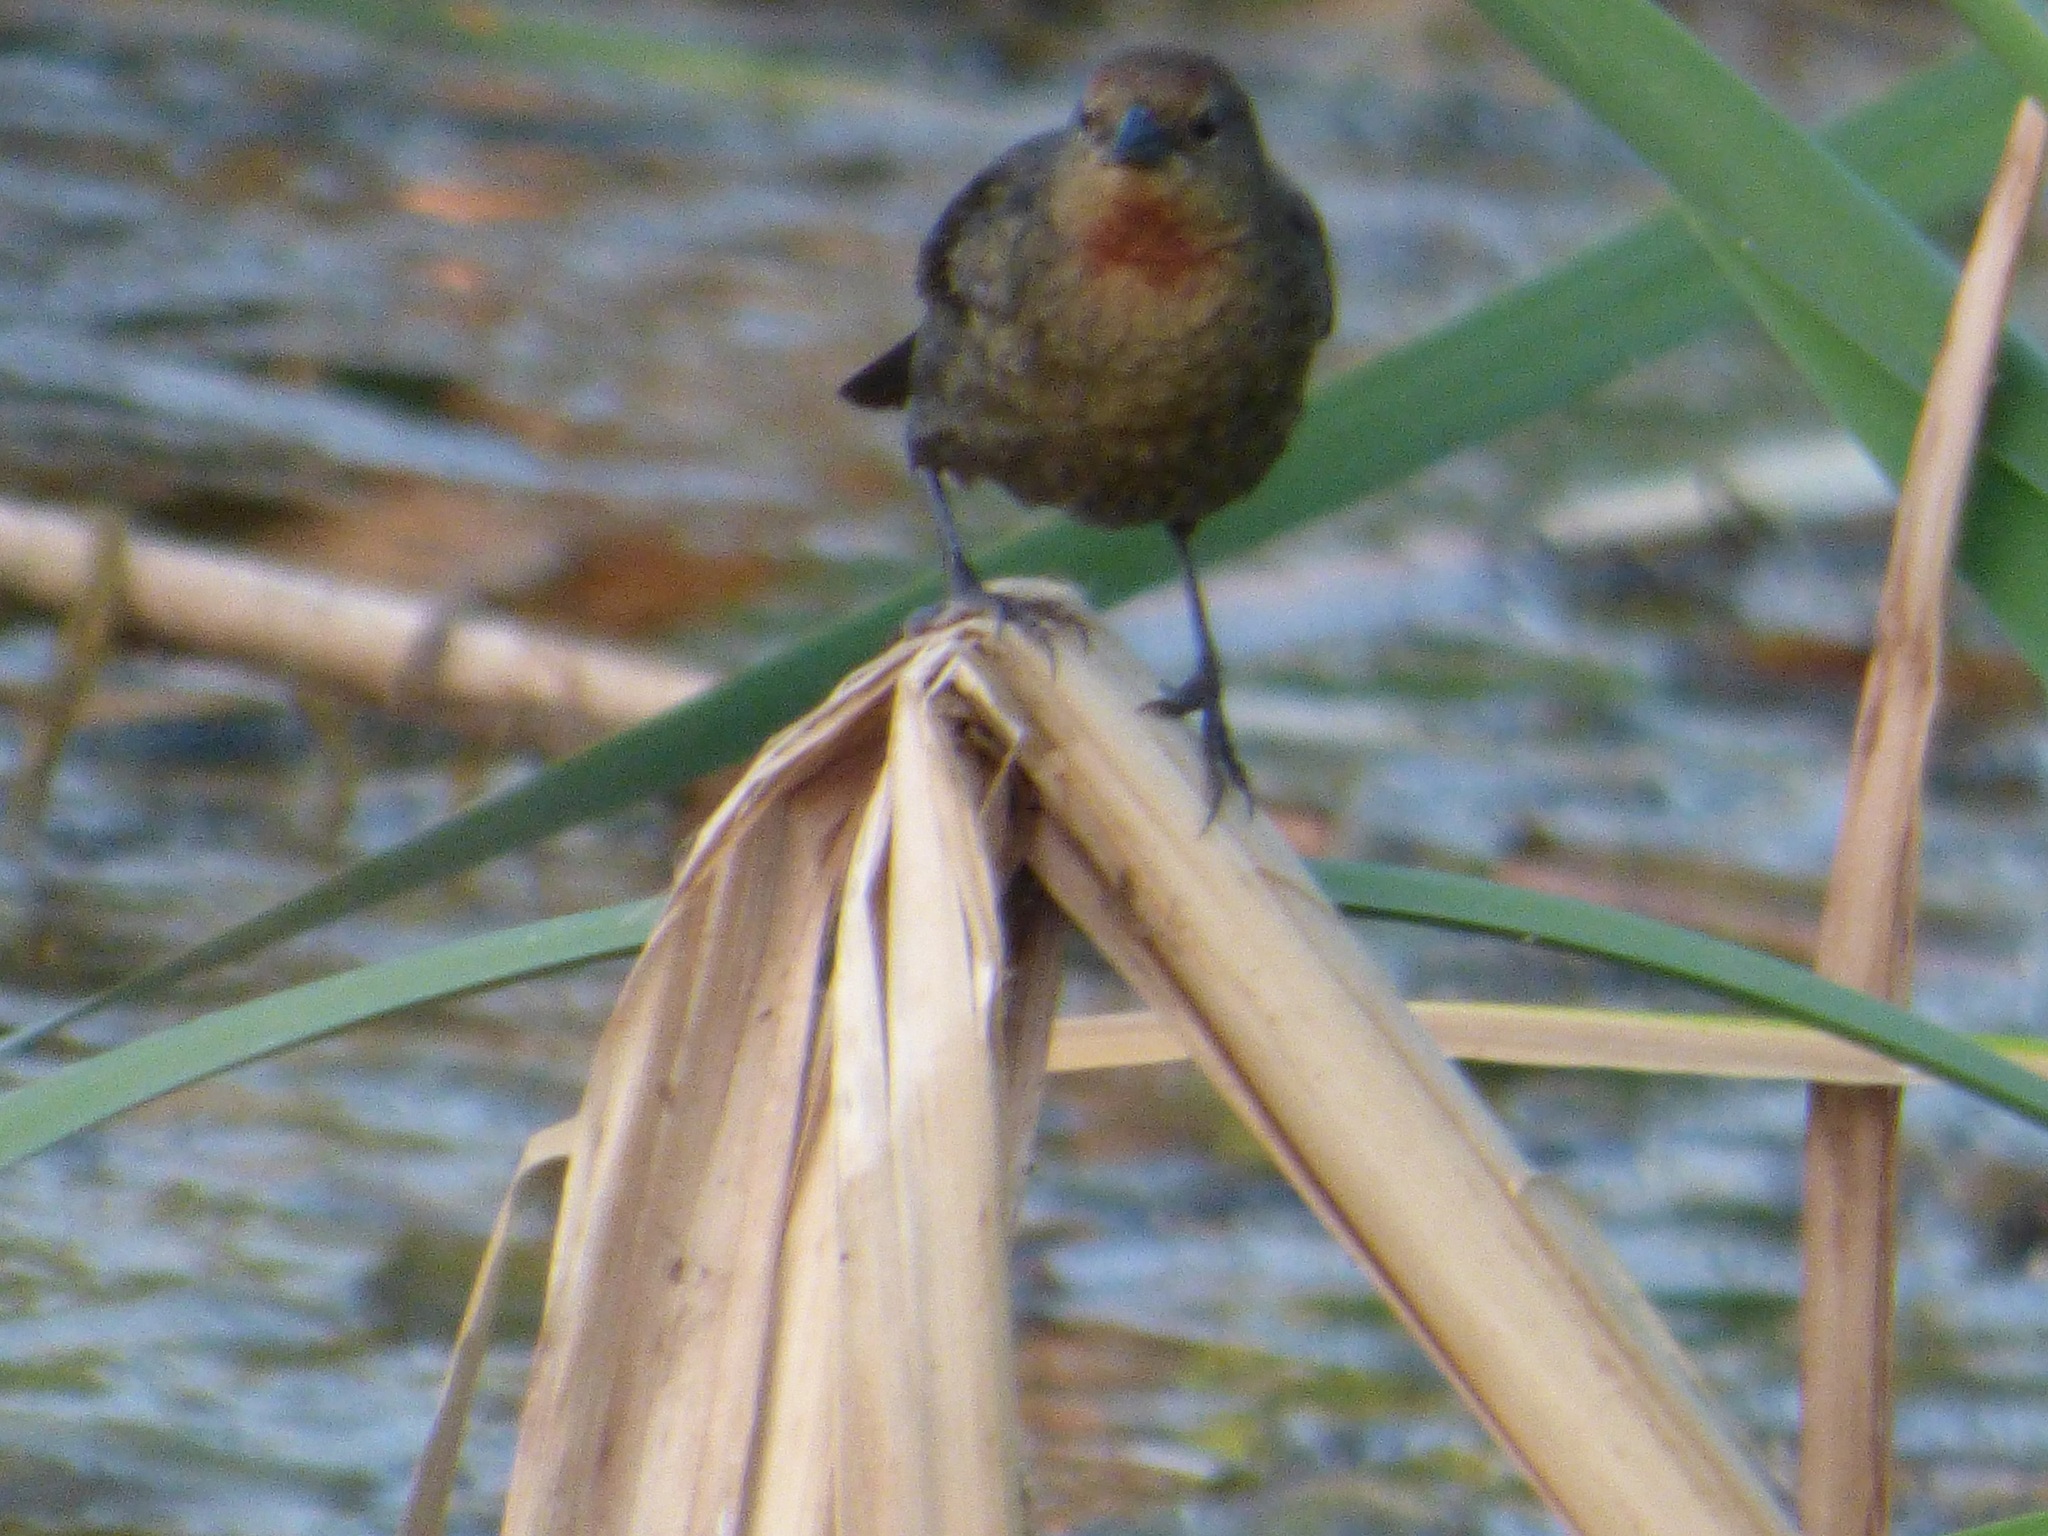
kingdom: Animalia
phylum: Chordata
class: Aves
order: Passeriformes
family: Icteridae
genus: Chrysomus
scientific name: Chrysomus ruficapillus
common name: Chestnut-capped blackbird
